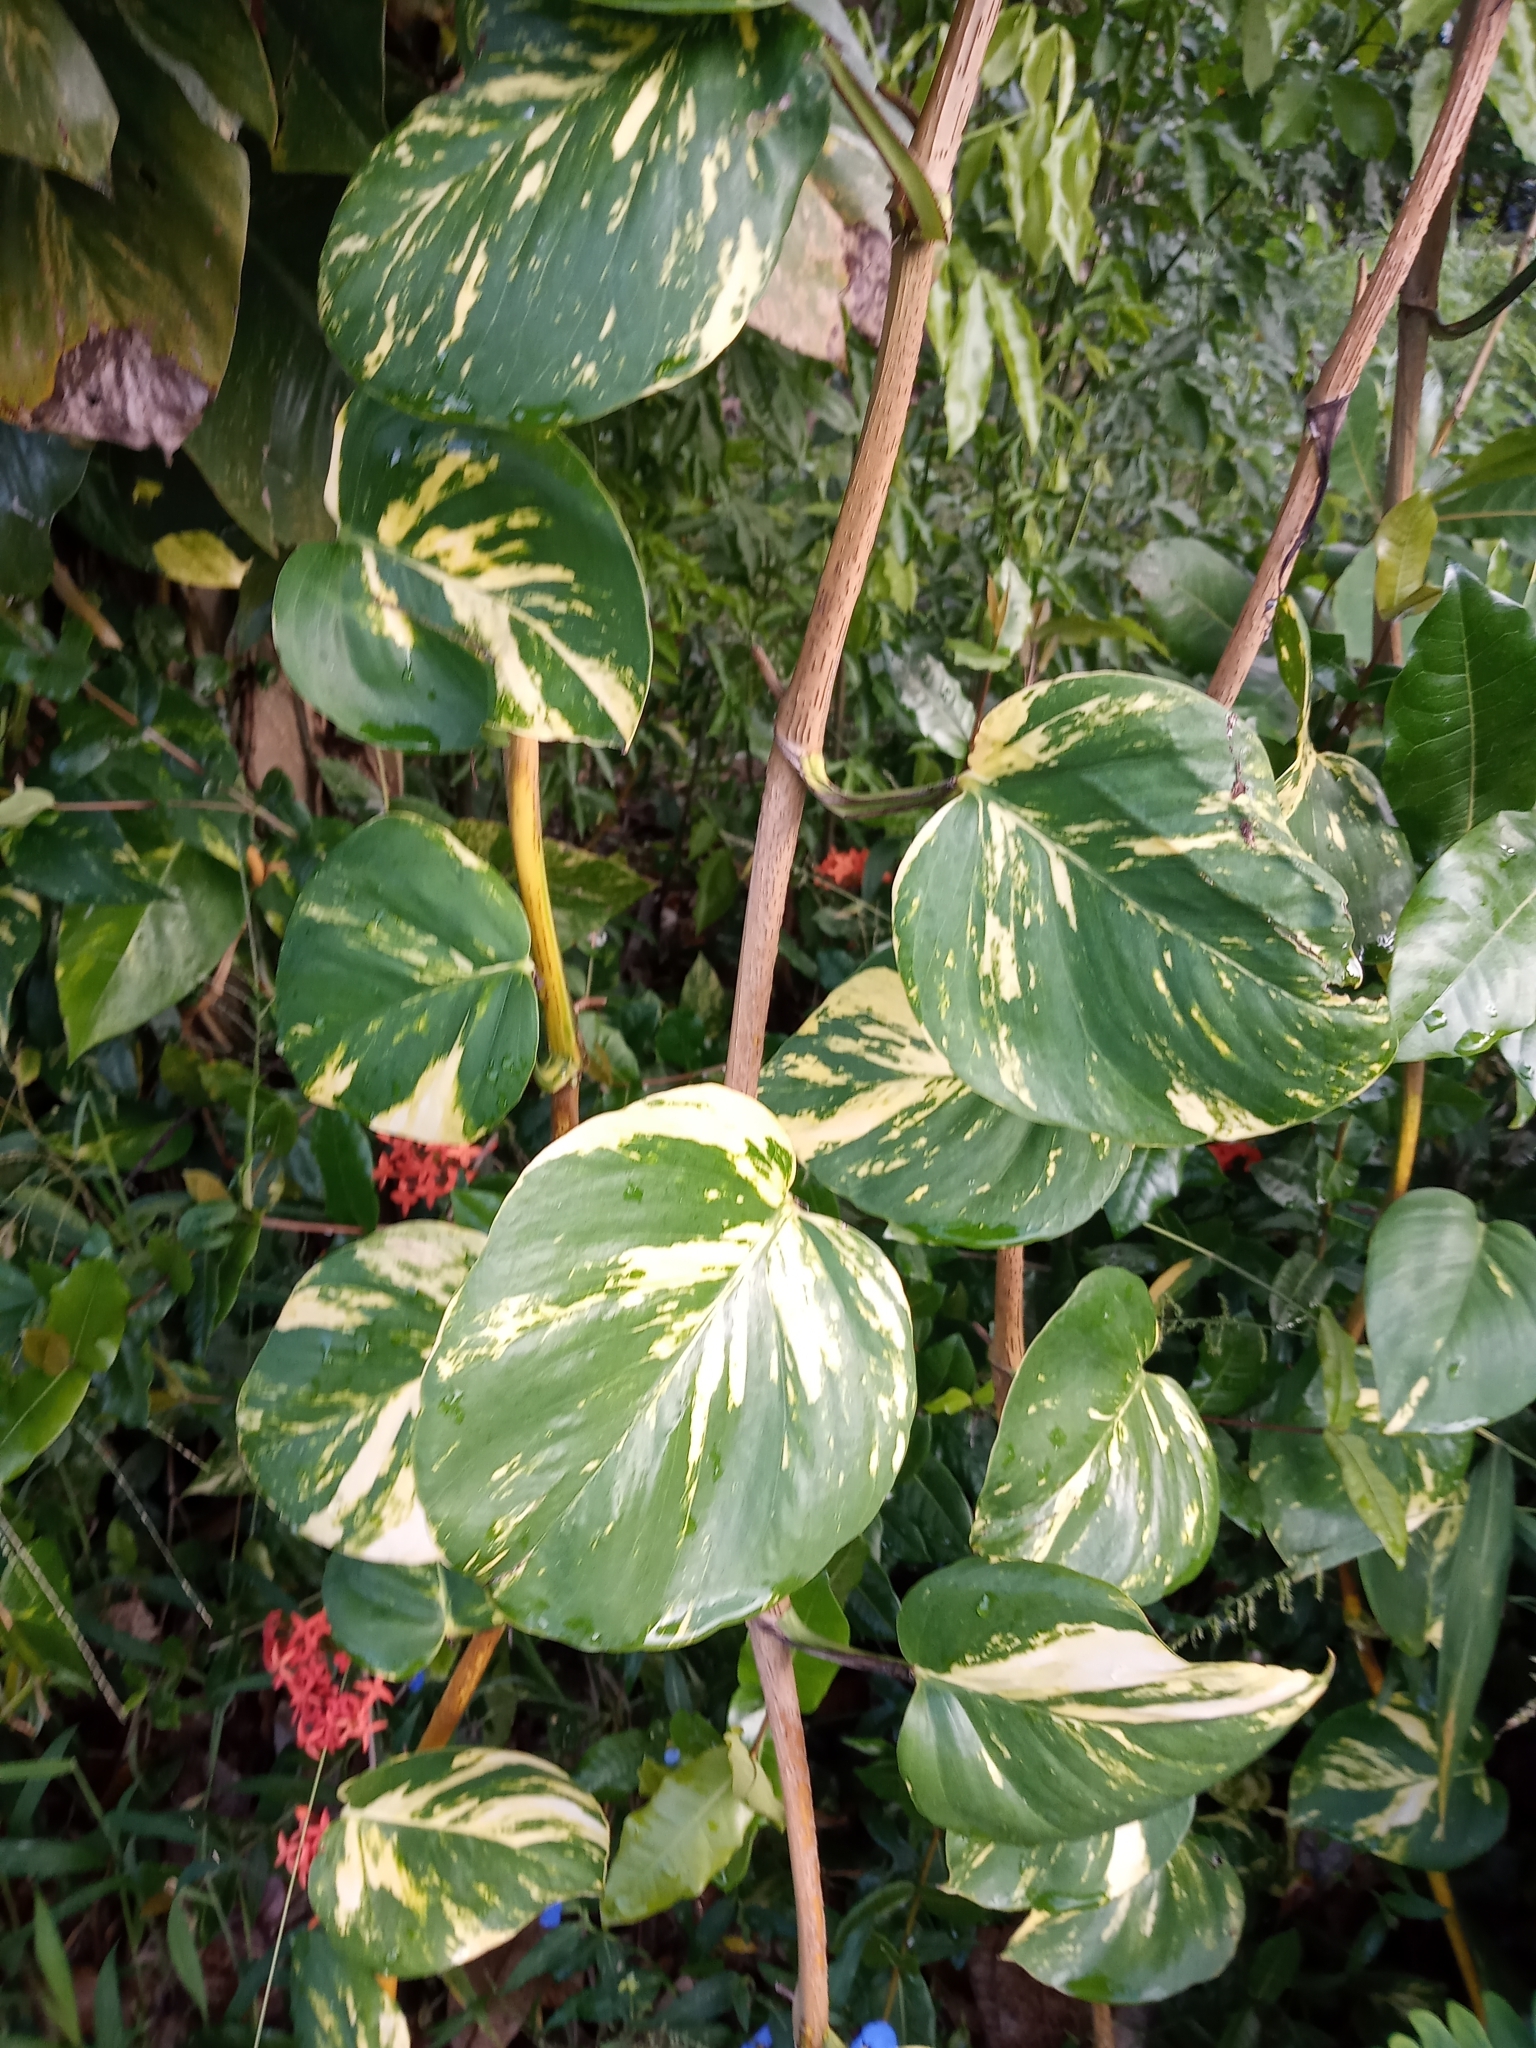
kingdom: Plantae
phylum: Tracheophyta
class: Liliopsida
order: Alismatales
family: Araceae
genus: Epipremnum
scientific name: Epipremnum aureum
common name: Golden hunter's-robe
